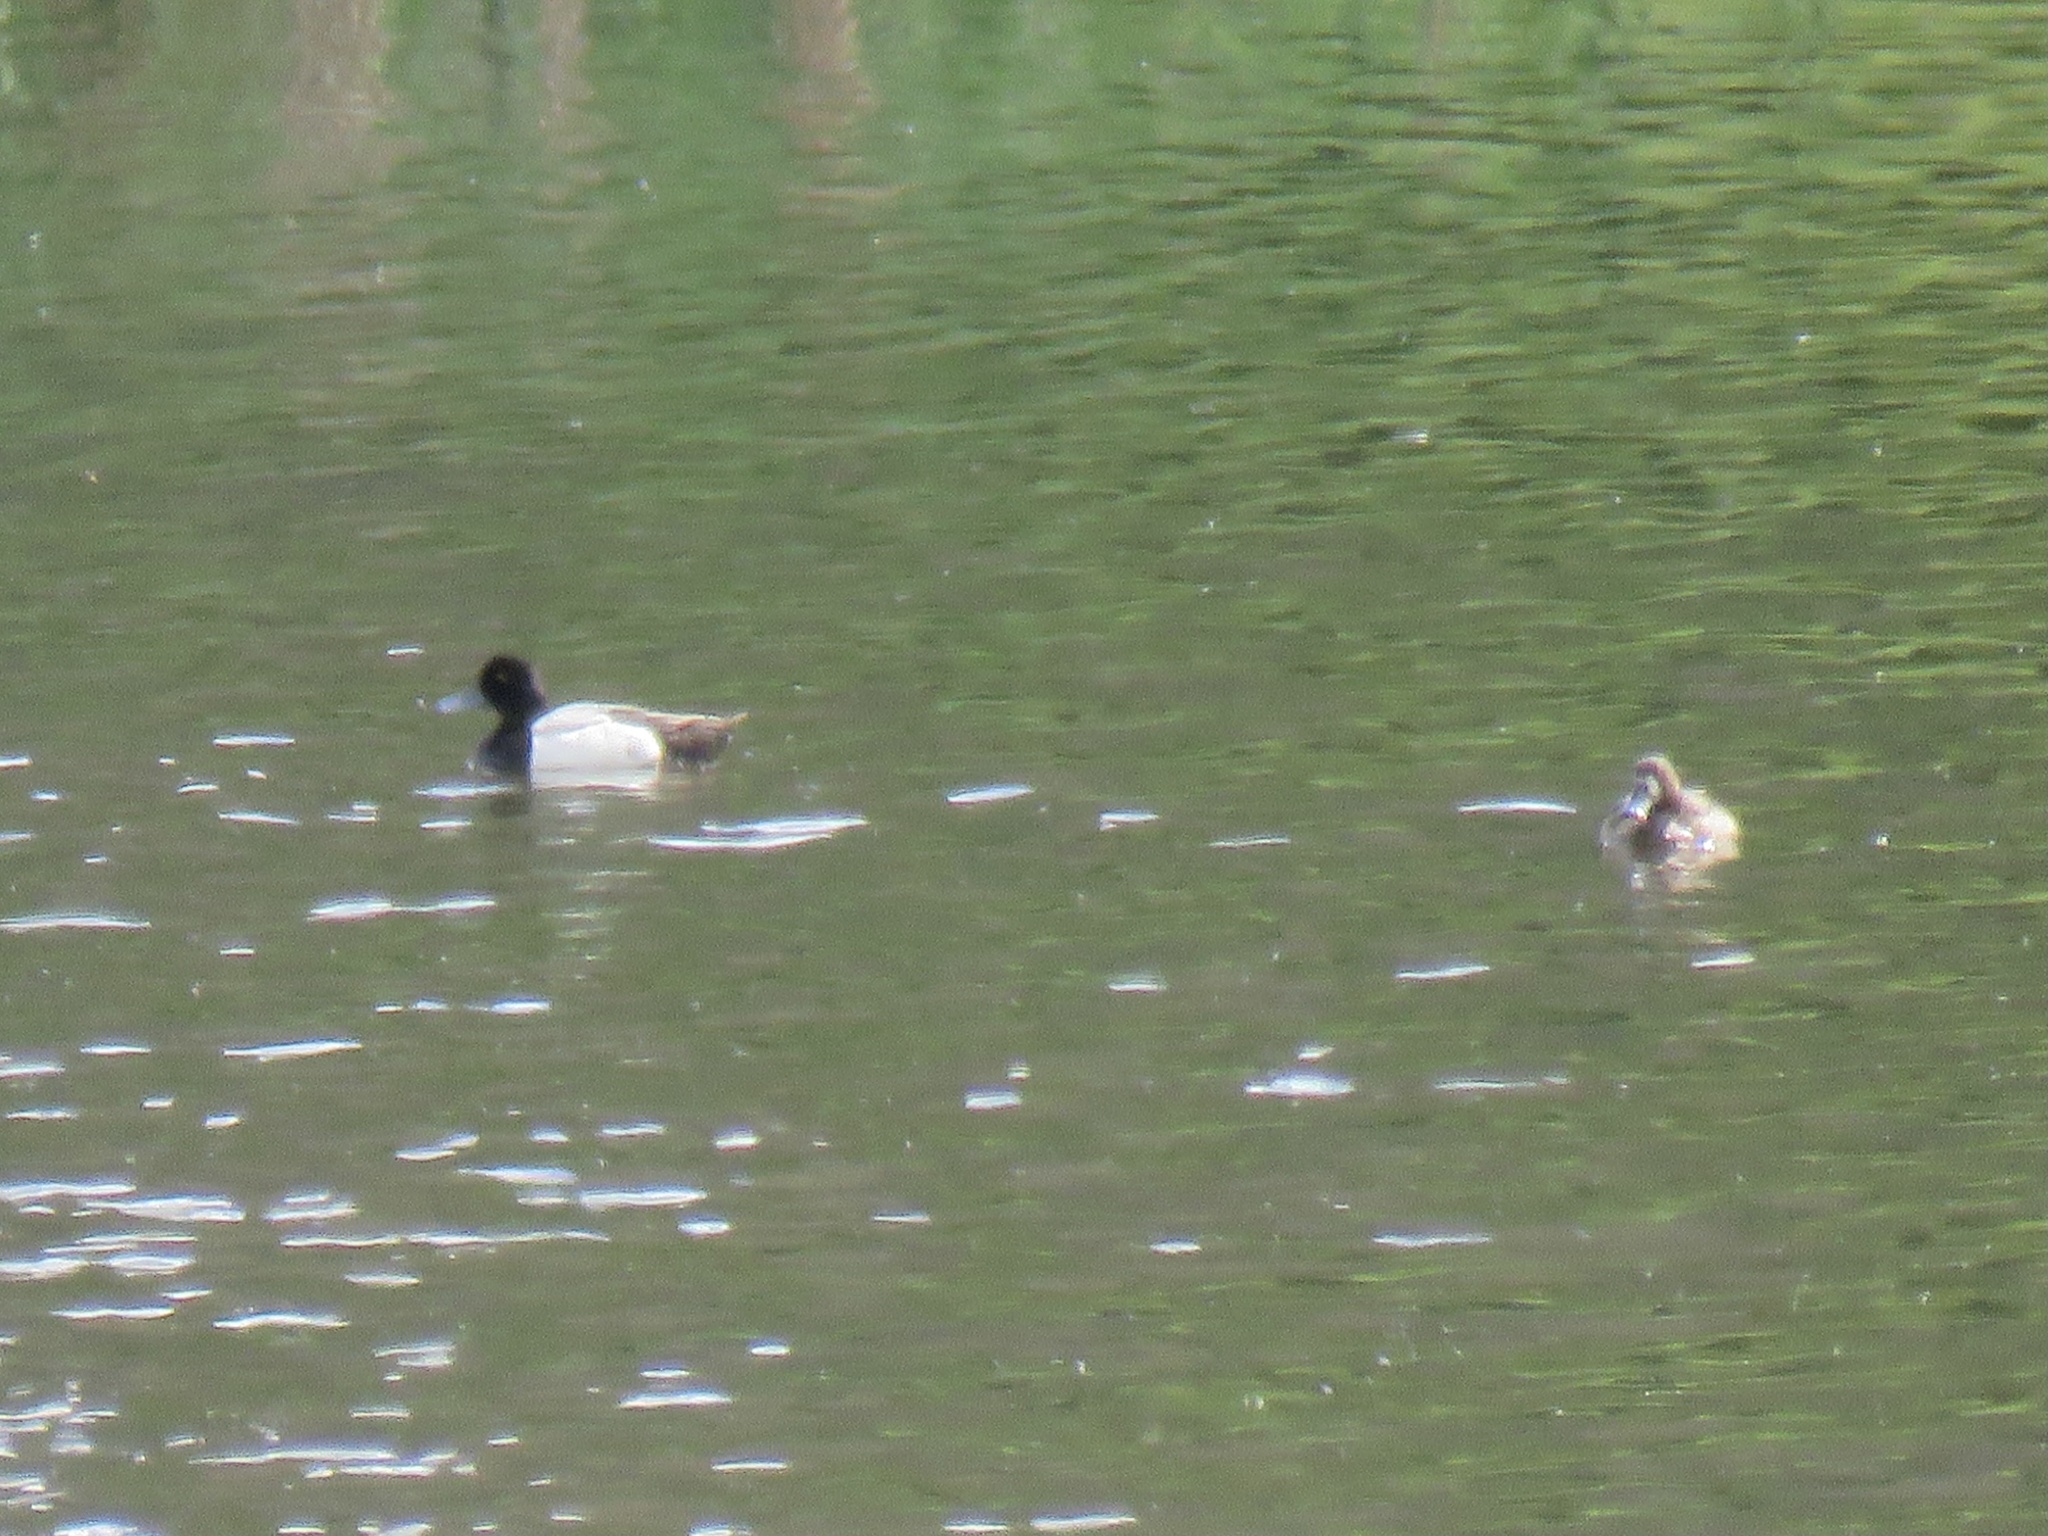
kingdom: Animalia
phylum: Chordata
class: Aves
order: Anseriformes
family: Anatidae
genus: Aythya
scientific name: Aythya affinis
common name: Lesser scaup
